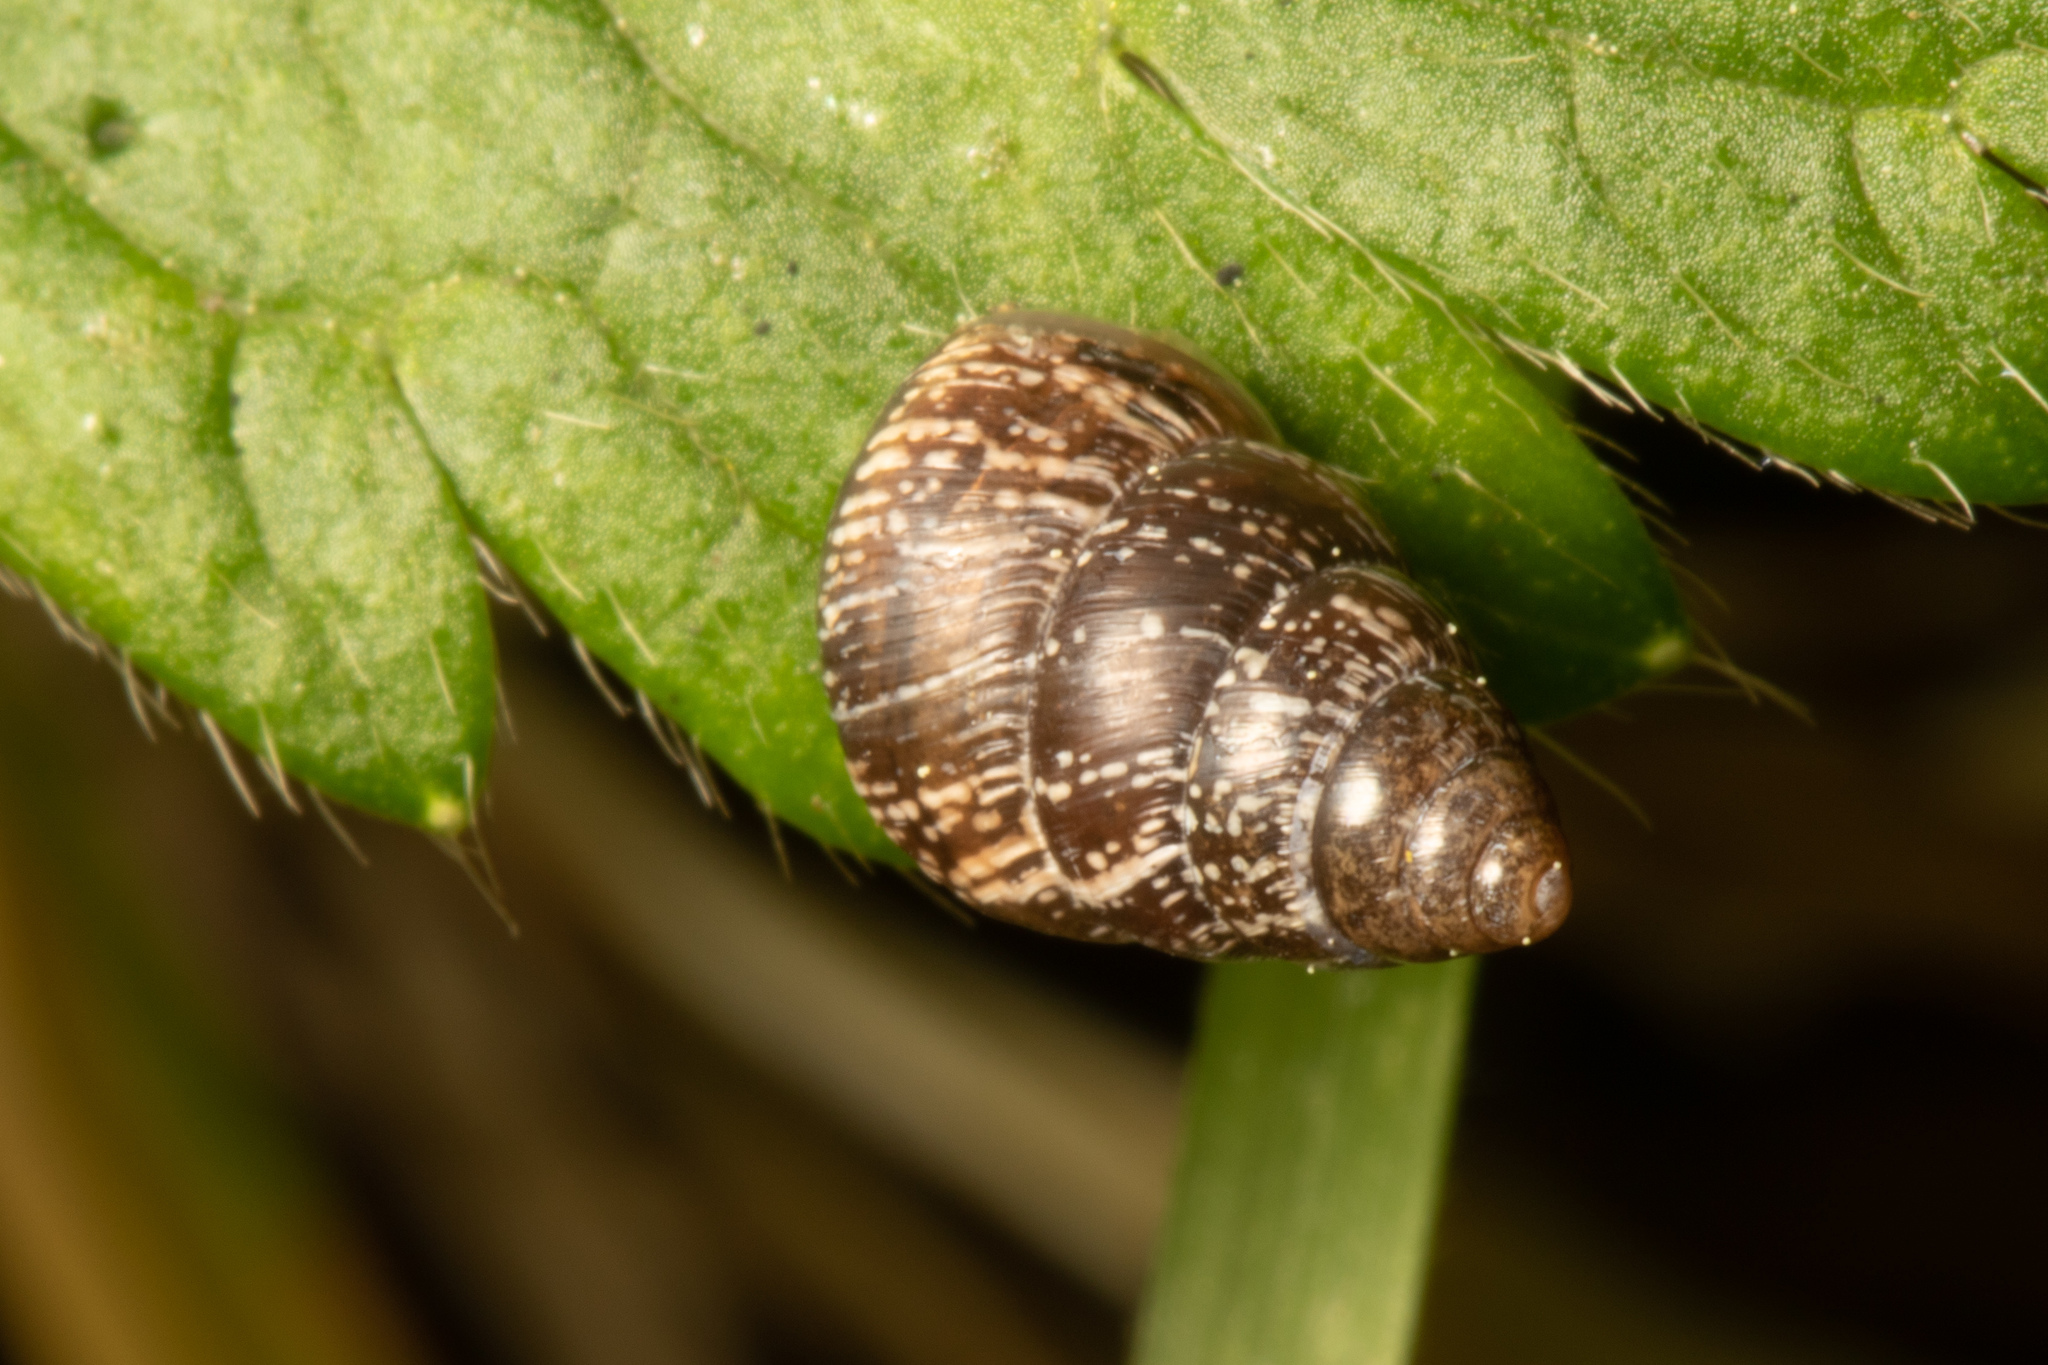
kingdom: Animalia
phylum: Mollusca
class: Gastropoda
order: Stylommatophora
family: Geomitridae
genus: Cochlicella
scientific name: Cochlicella barbara
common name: Potbellied helicellid
